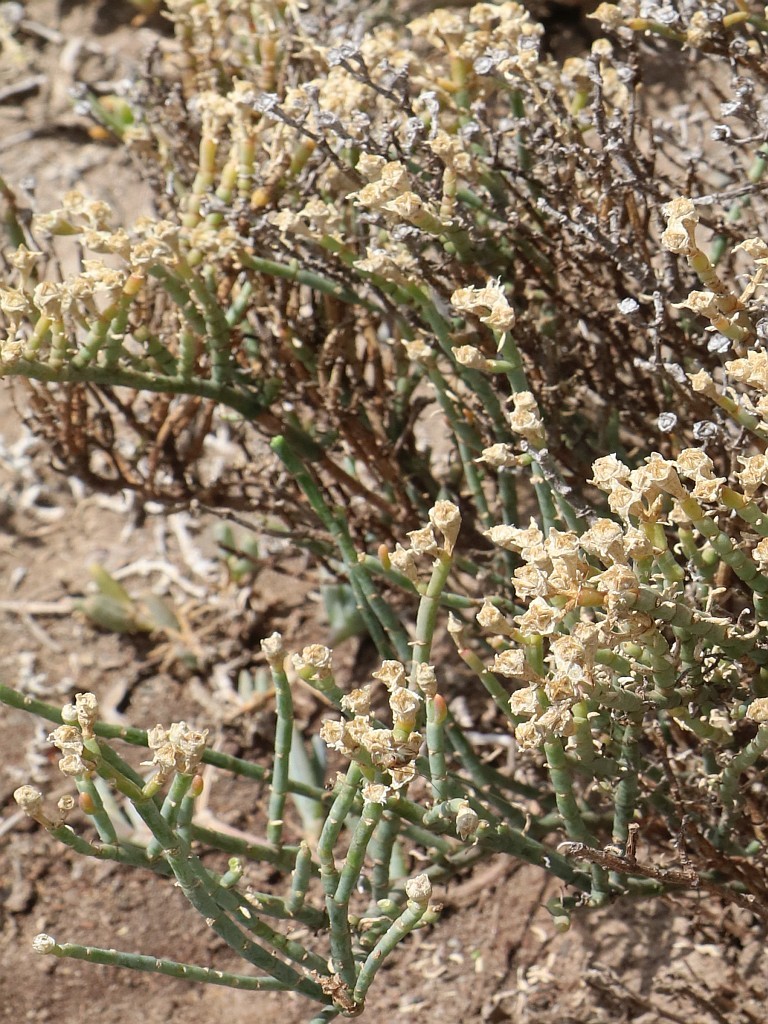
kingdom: Plantae
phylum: Tracheophyta
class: Magnoliopsida
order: Caryophyllales
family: Aizoaceae
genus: Mesembryanthemum
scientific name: Mesembryanthemum junceum
